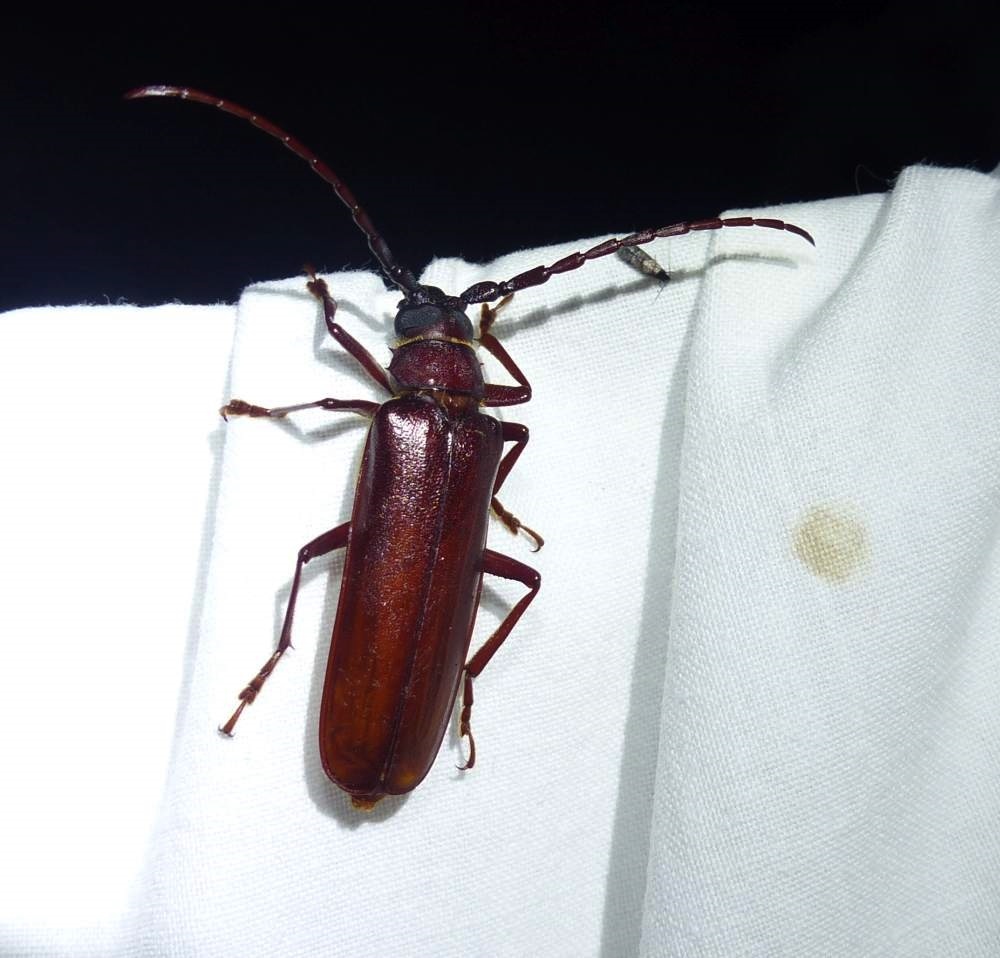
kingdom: Animalia
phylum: Arthropoda
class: Insecta
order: Coleoptera
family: Cerambycidae
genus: Orthosoma
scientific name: Orthosoma brunneum
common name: Brown prionid beetle
